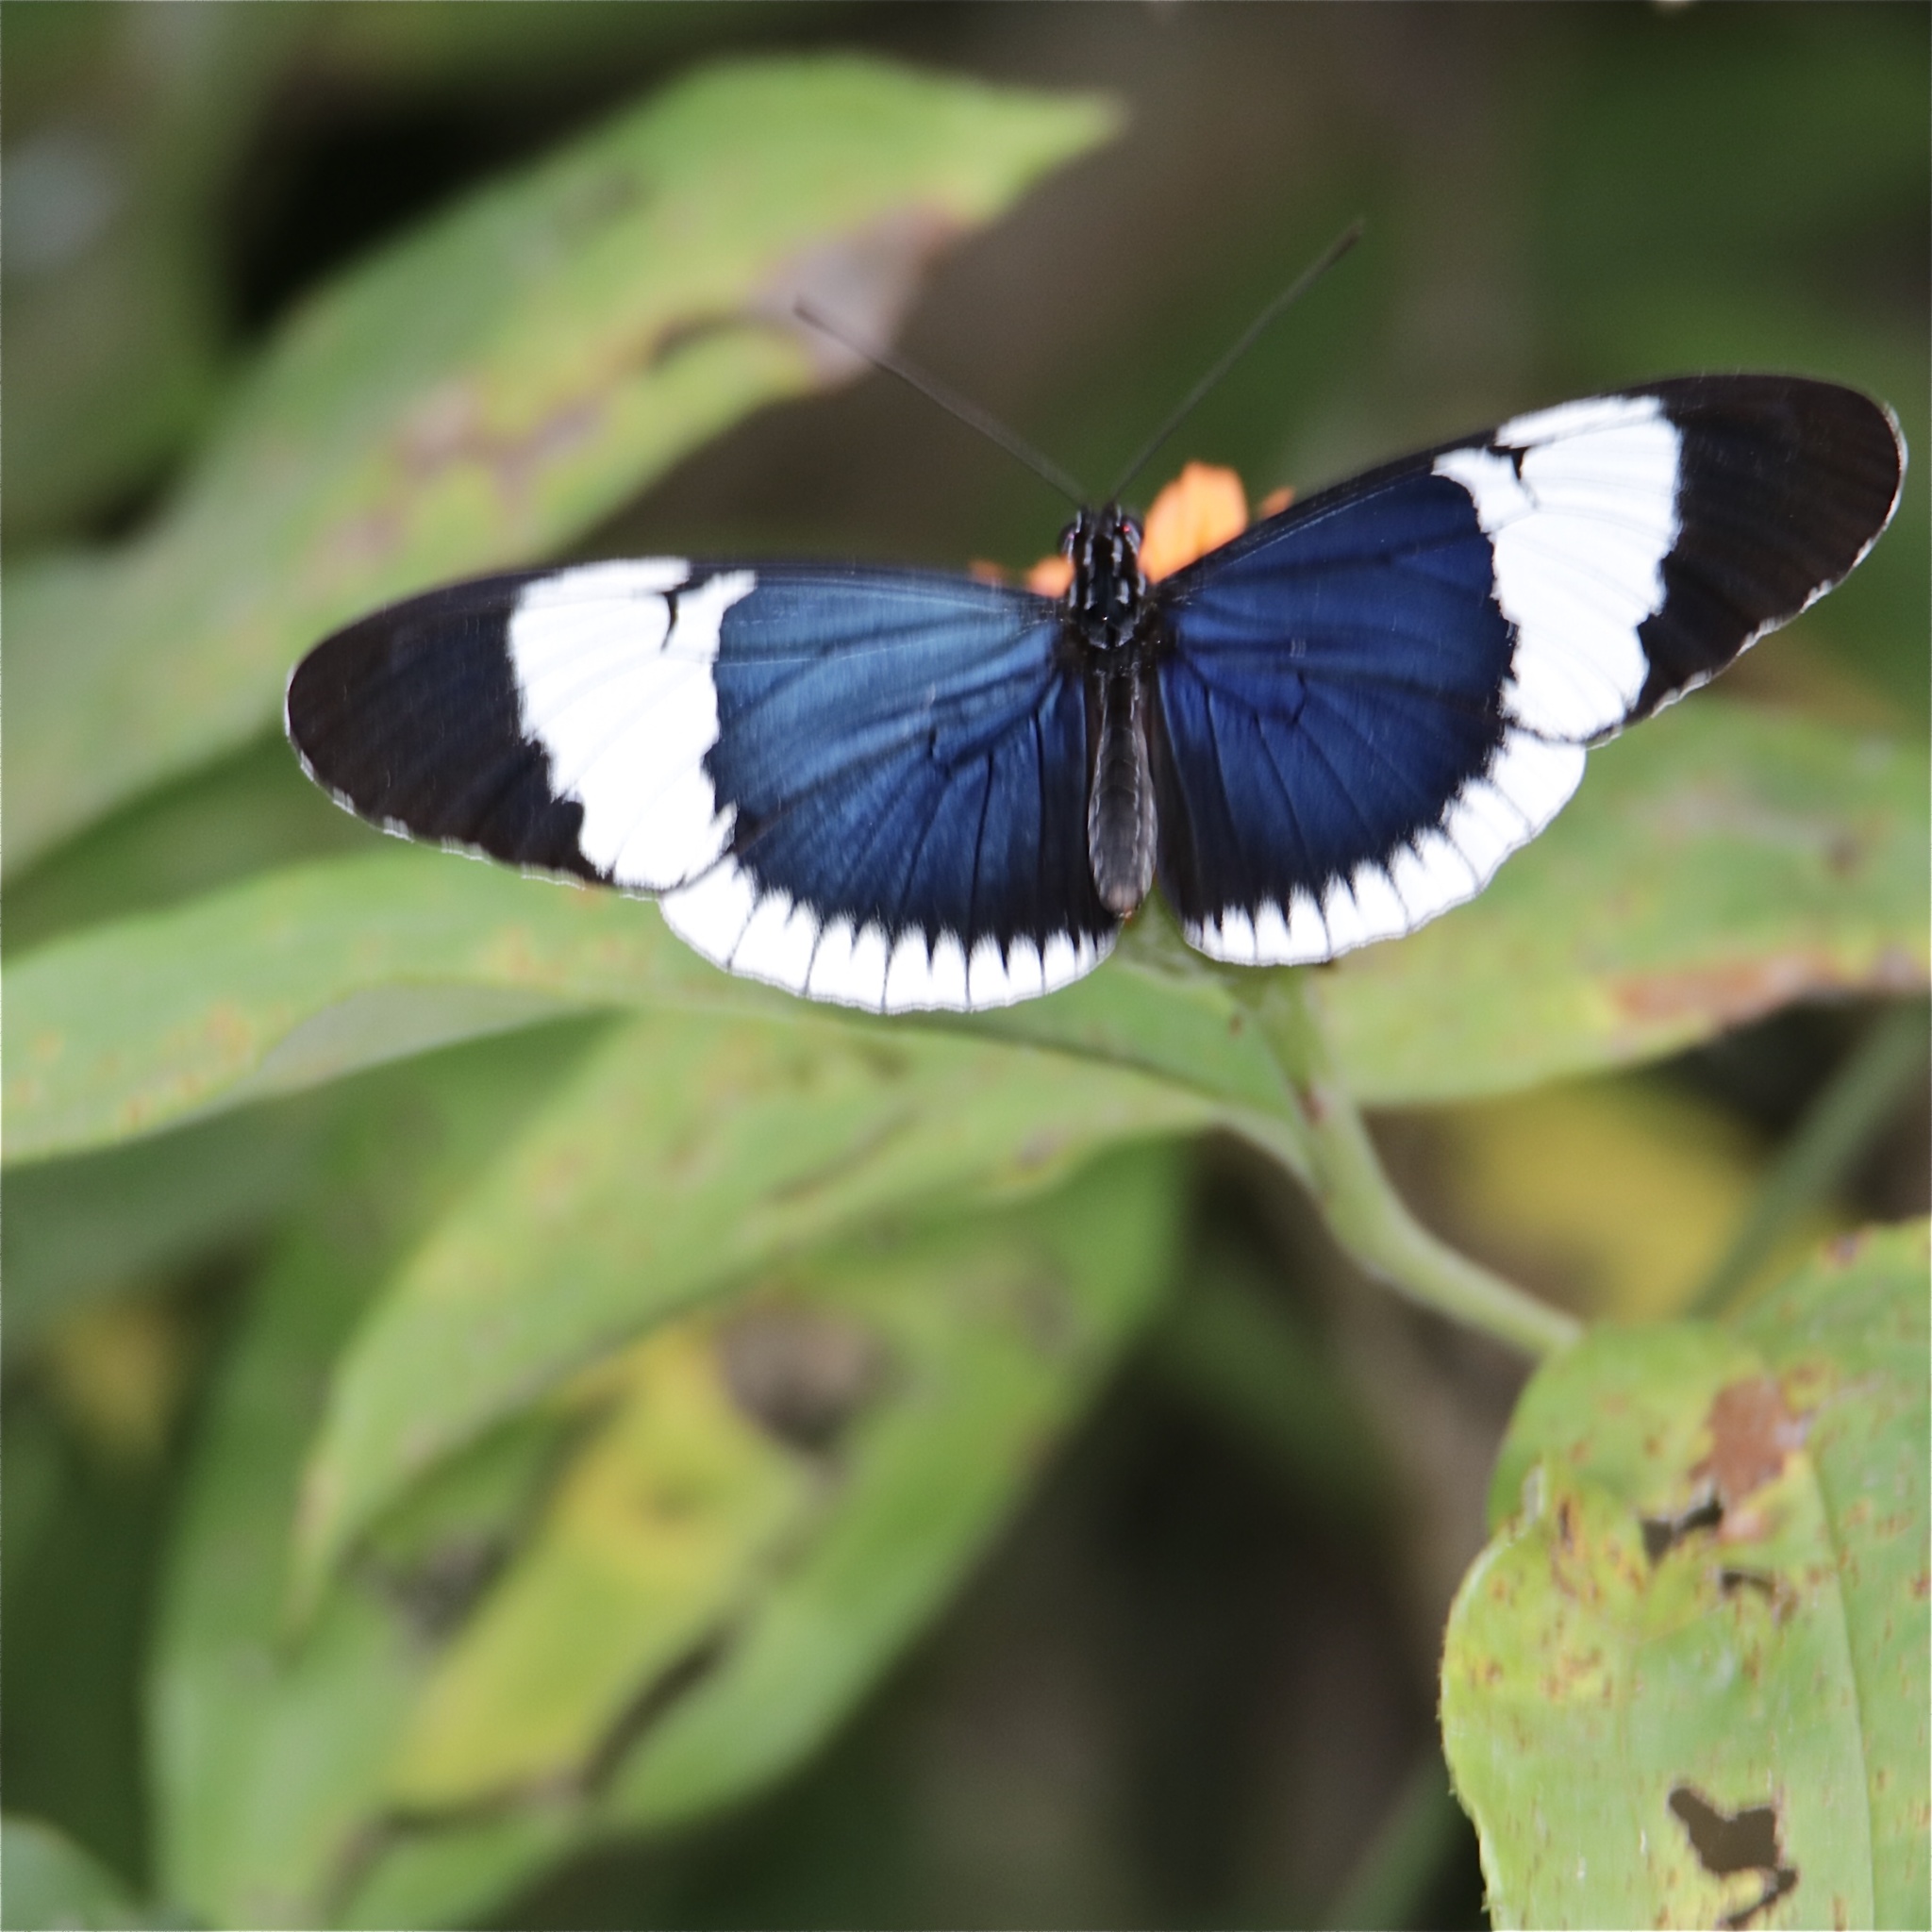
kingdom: Animalia
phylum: Arthropoda
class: Insecta
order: Lepidoptera
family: Nymphalidae
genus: Heliconius
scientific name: Heliconius cydno
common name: Cydno longwing
